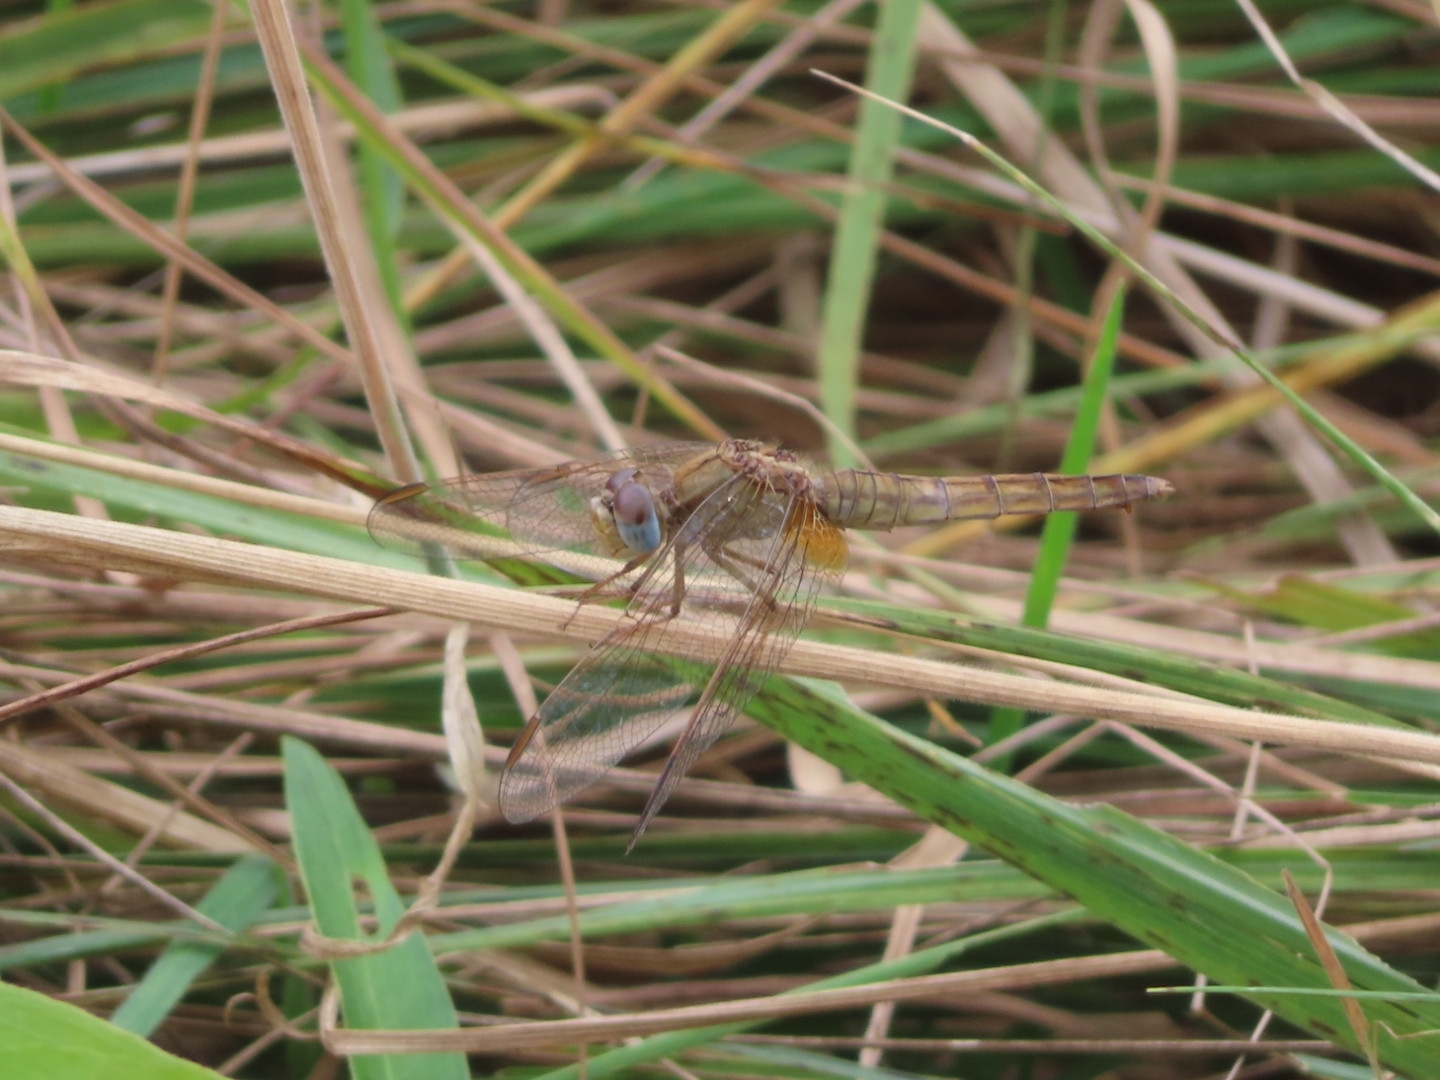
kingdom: Animalia
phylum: Arthropoda
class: Insecta
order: Odonata
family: Libellulidae
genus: Crocothemis
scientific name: Crocothemis erythraea
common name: Scarlet dragonfly
